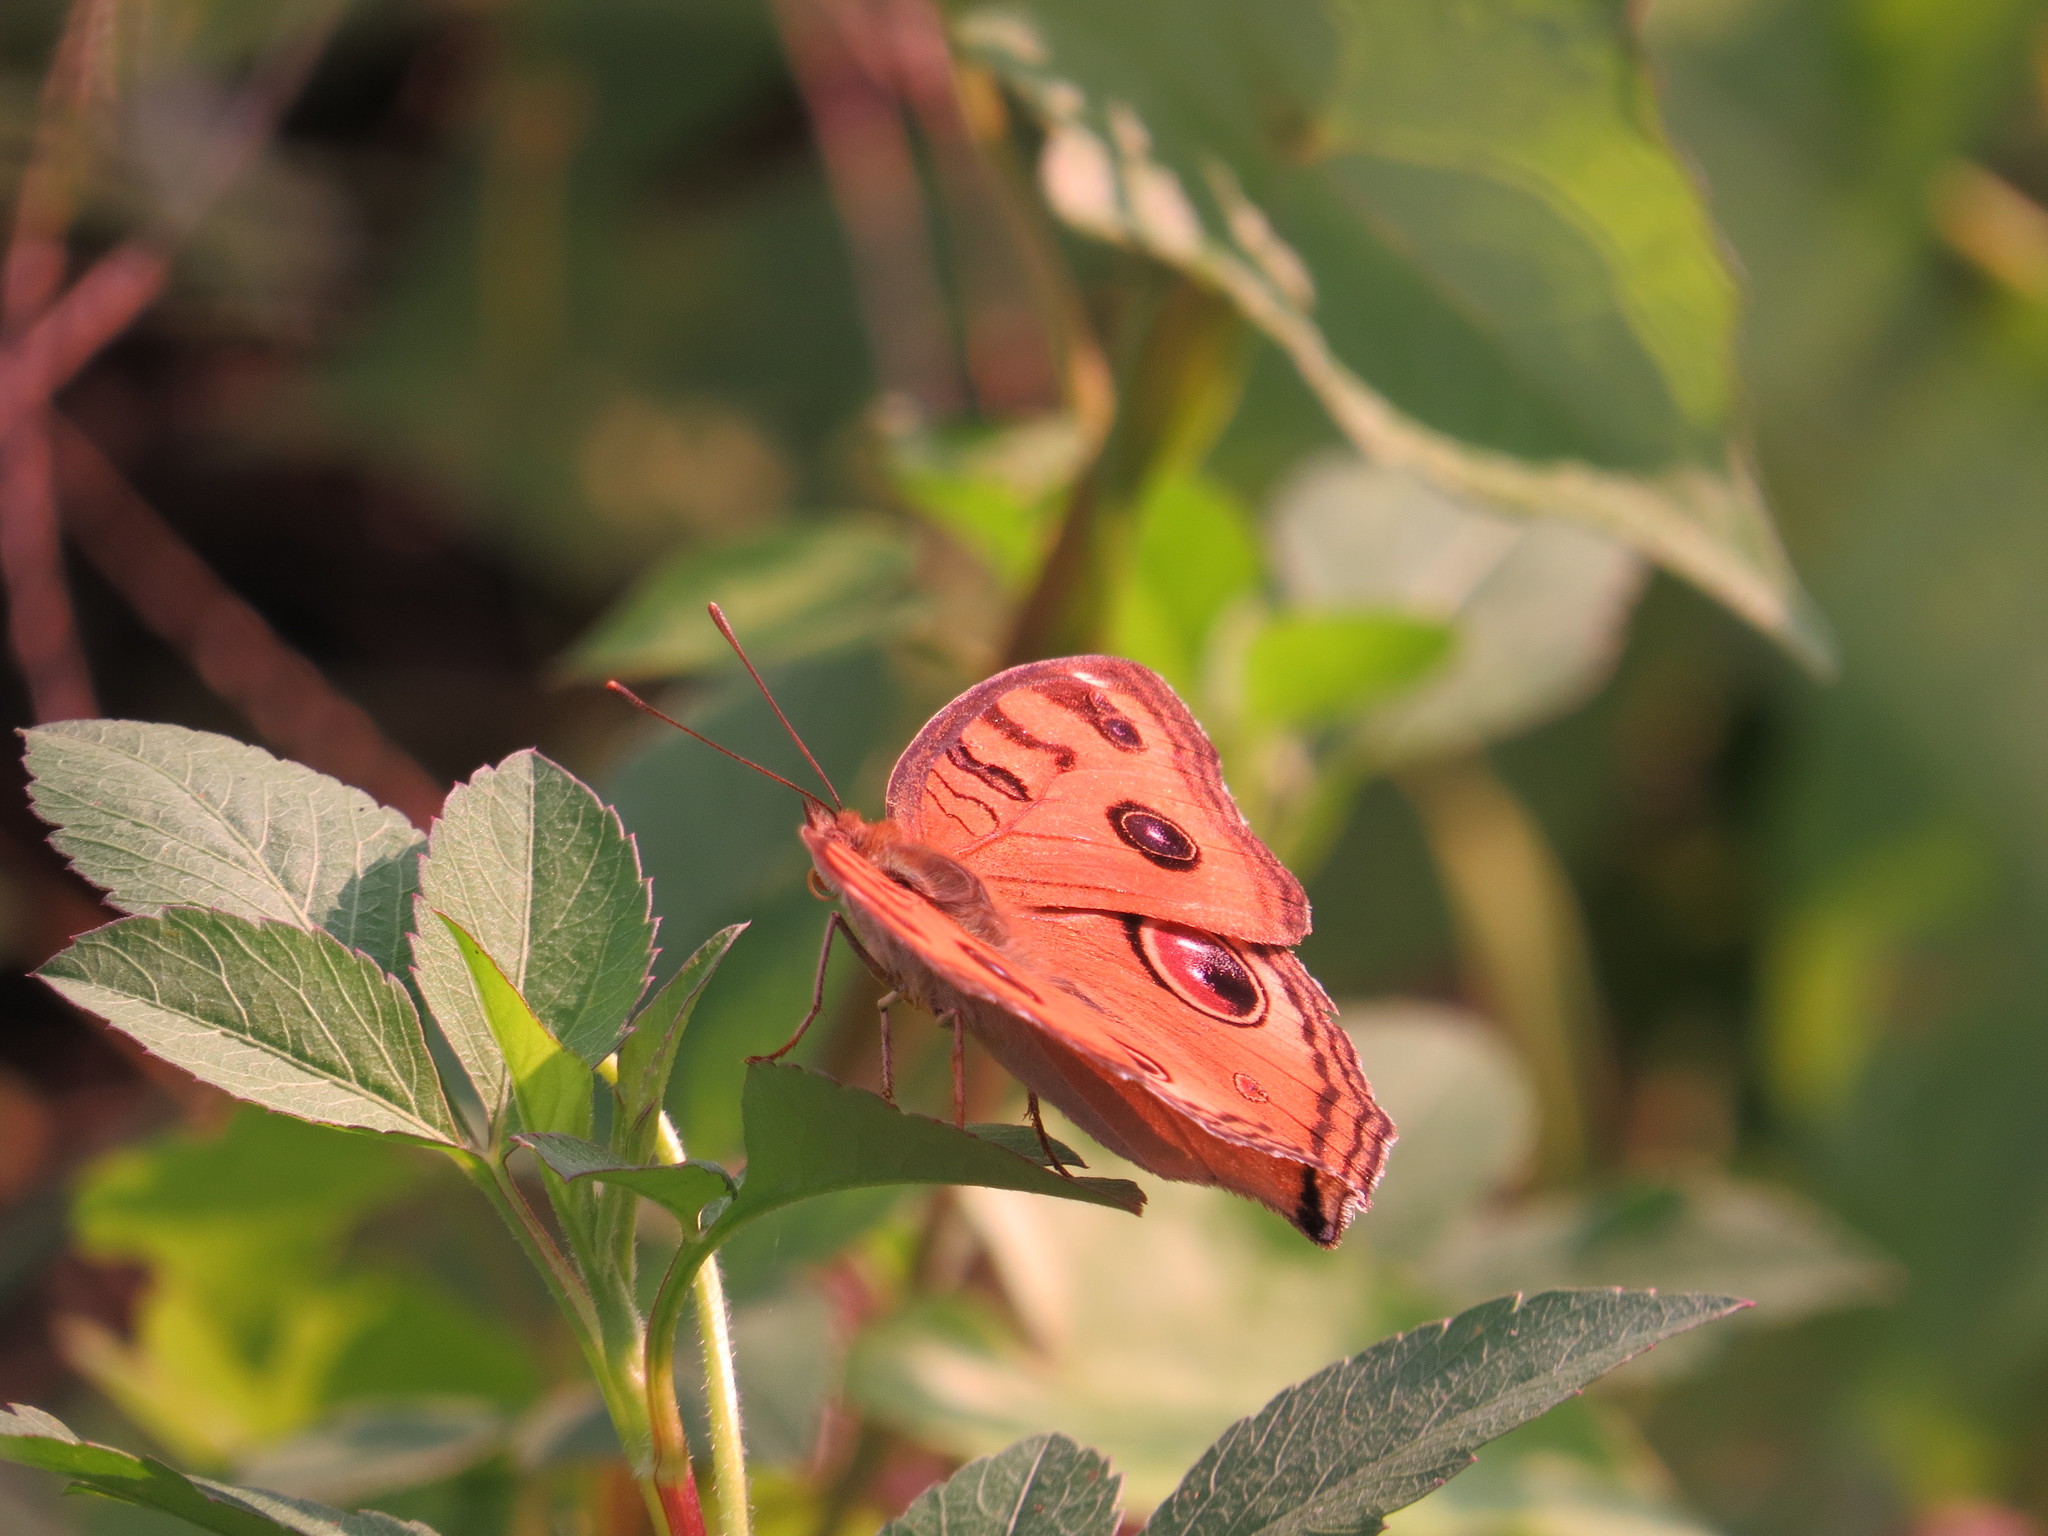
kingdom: Animalia
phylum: Arthropoda
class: Insecta
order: Lepidoptera
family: Nymphalidae
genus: Junonia
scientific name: Junonia almana
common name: Peacock pansy
